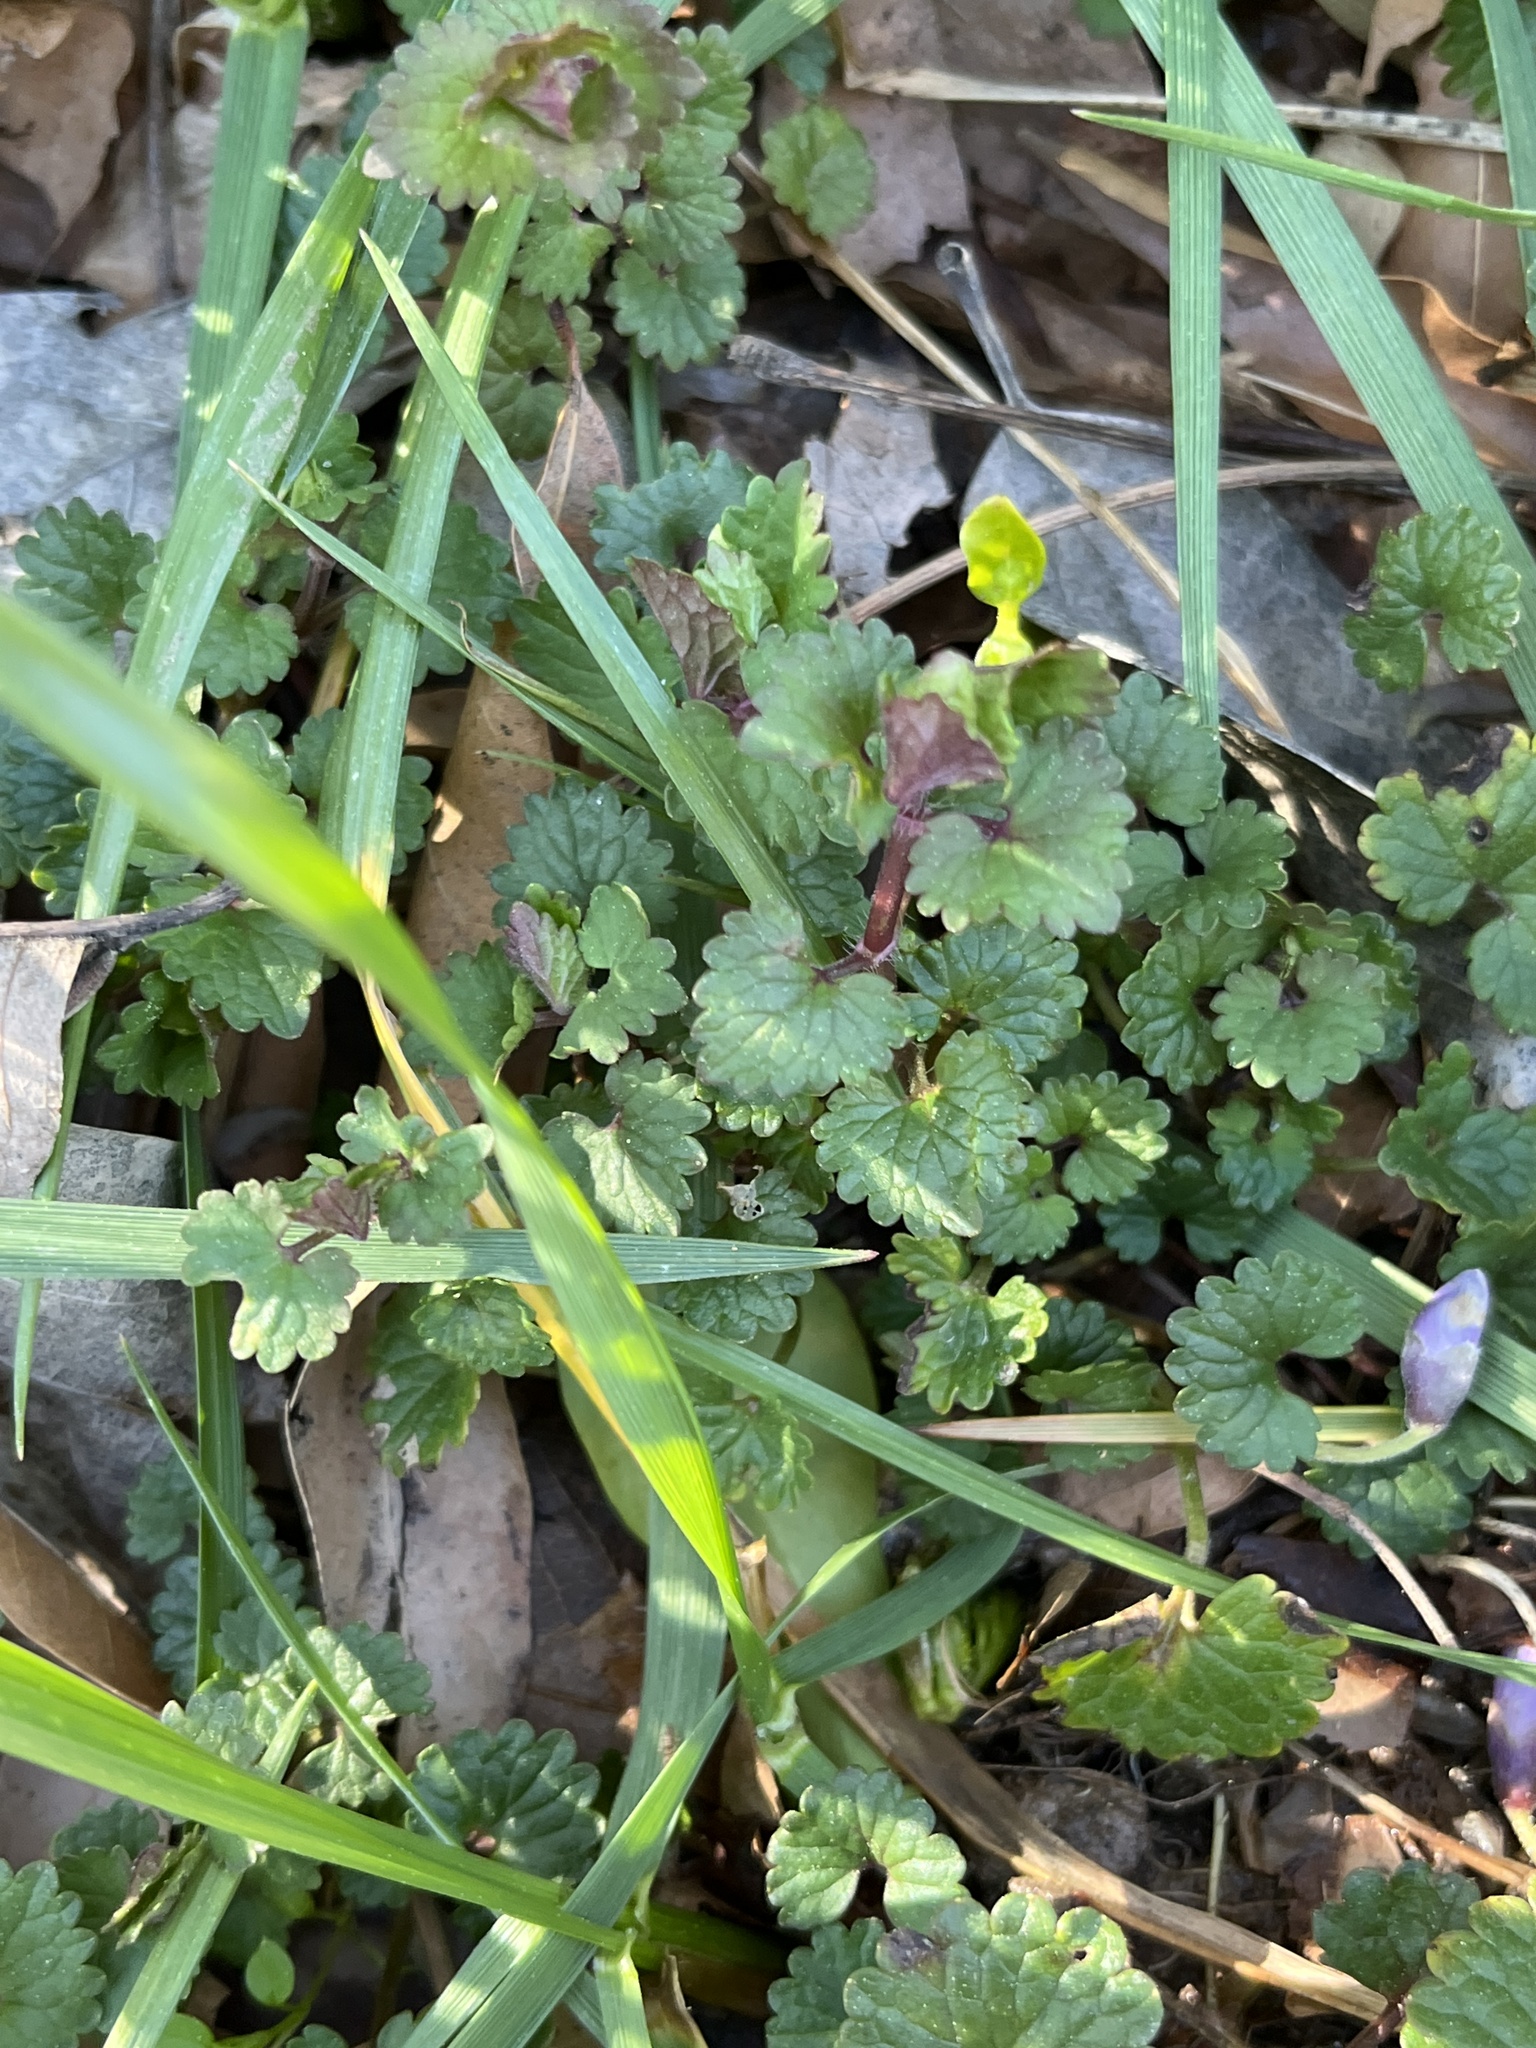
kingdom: Plantae
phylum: Tracheophyta
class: Magnoliopsida
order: Lamiales
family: Lamiaceae
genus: Glechoma
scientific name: Glechoma hederacea
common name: Ground ivy
